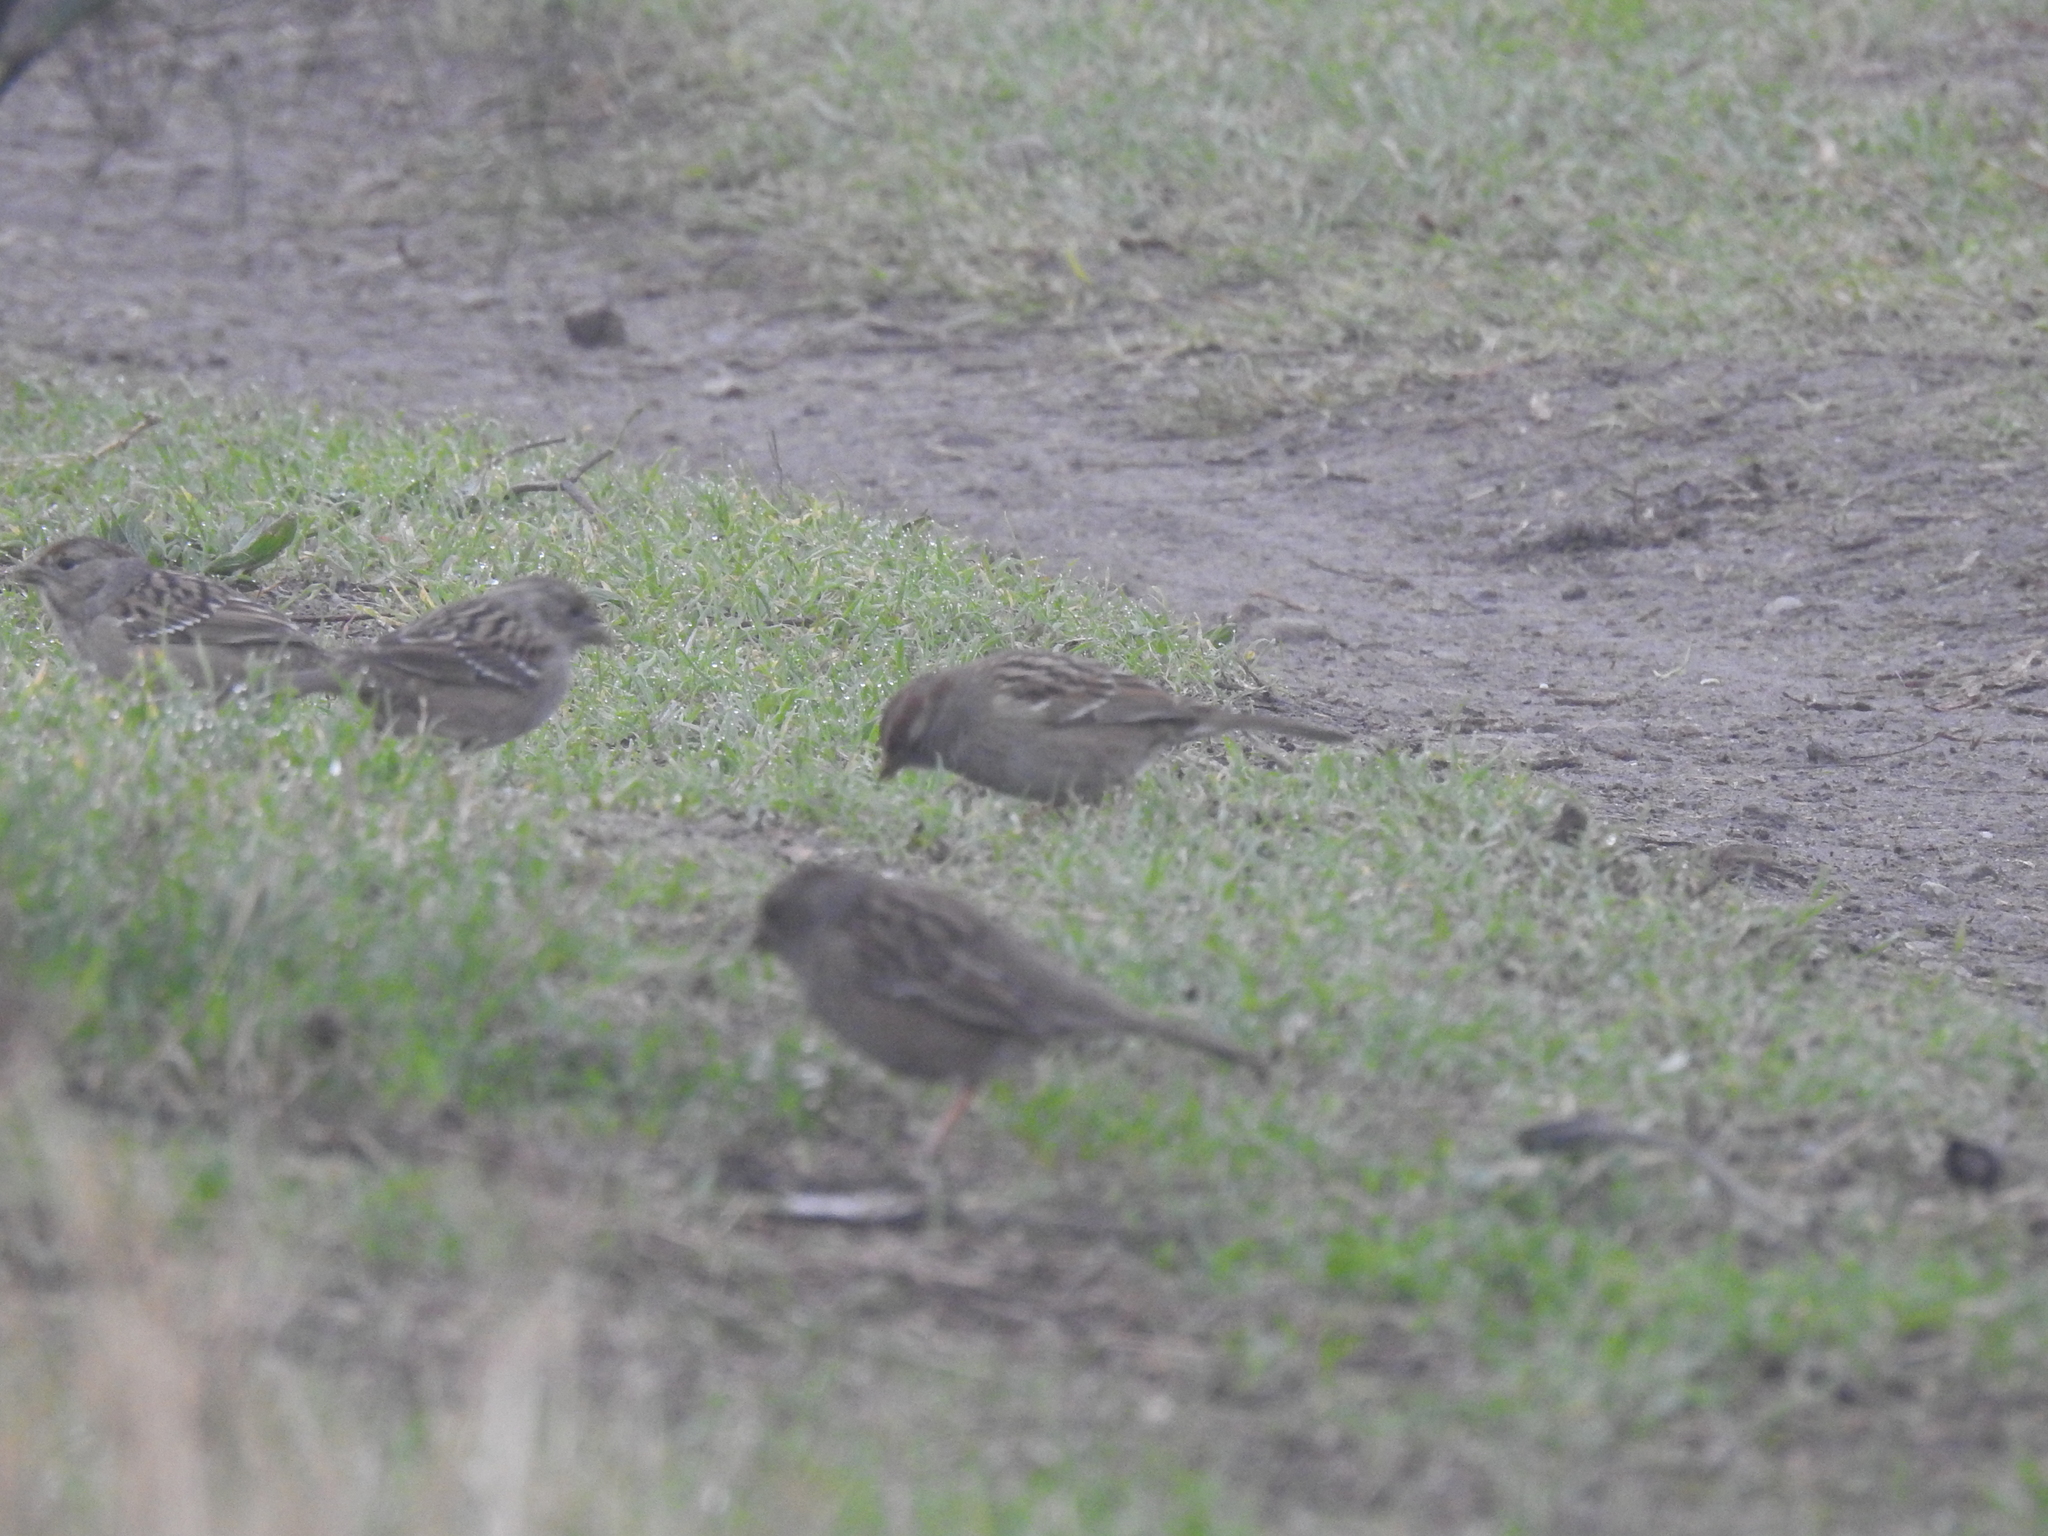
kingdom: Animalia
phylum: Chordata
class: Aves
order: Passeriformes
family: Passerellidae
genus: Zonotrichia
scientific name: Zonotrichia atricapilla
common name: Golden-crowned sparrow
